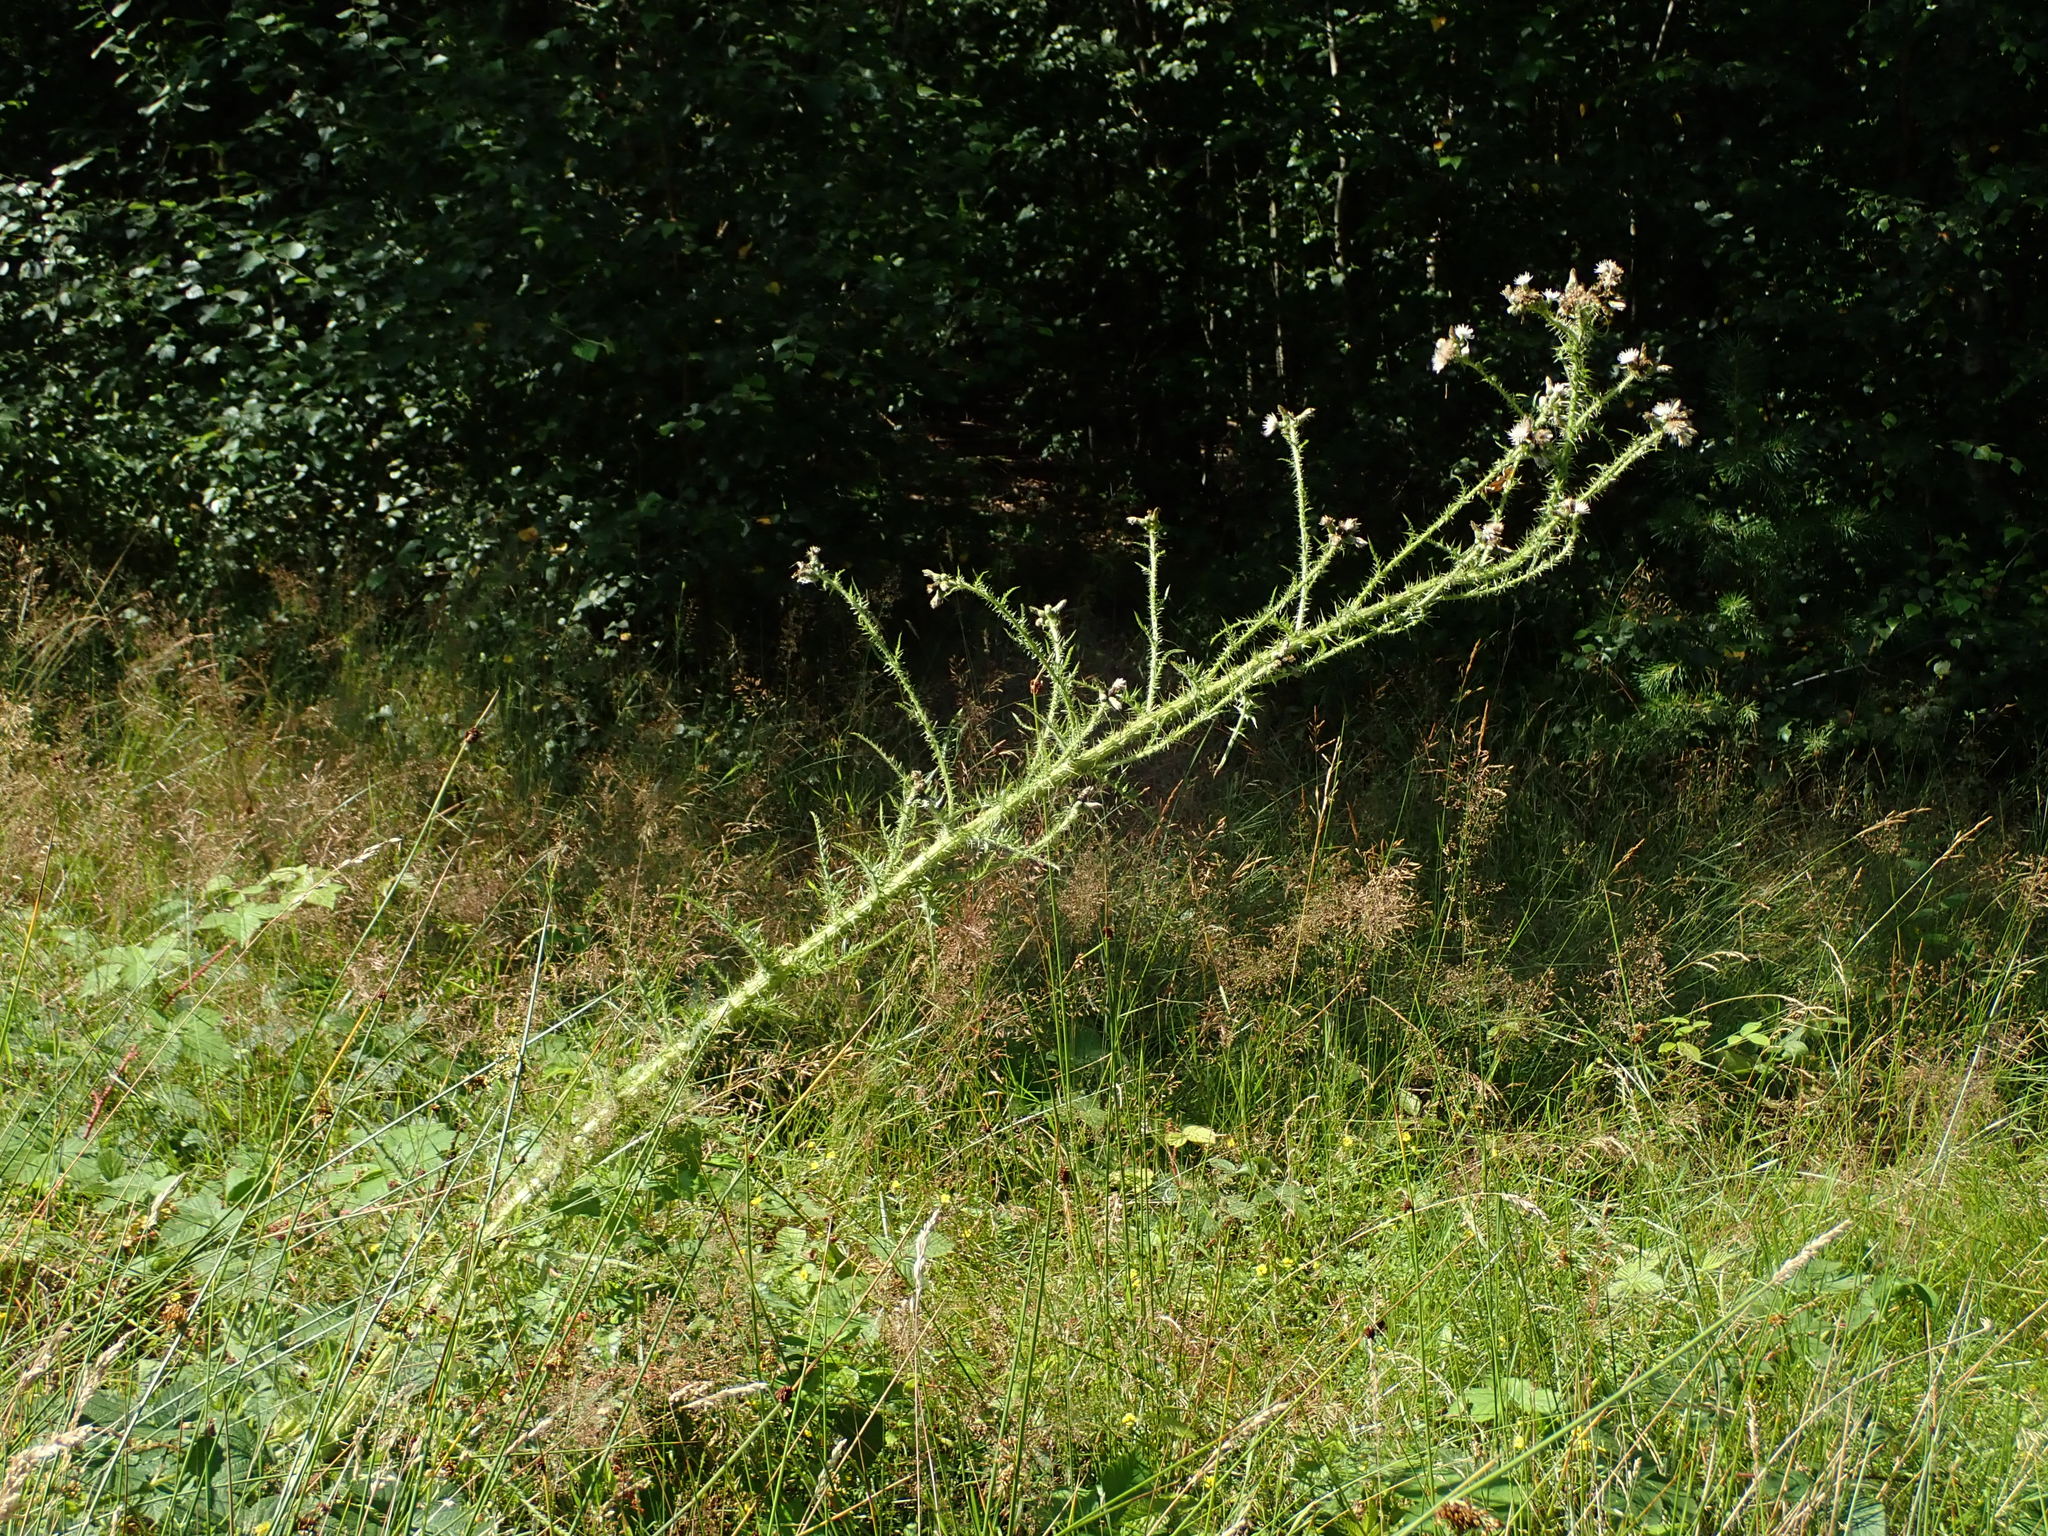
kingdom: Plantae
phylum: Tracheophyta
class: Magnoliopsida
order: Asterales
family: Asteraceae
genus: Cirsium
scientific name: Cirsium palustre
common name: Marsh thistle
